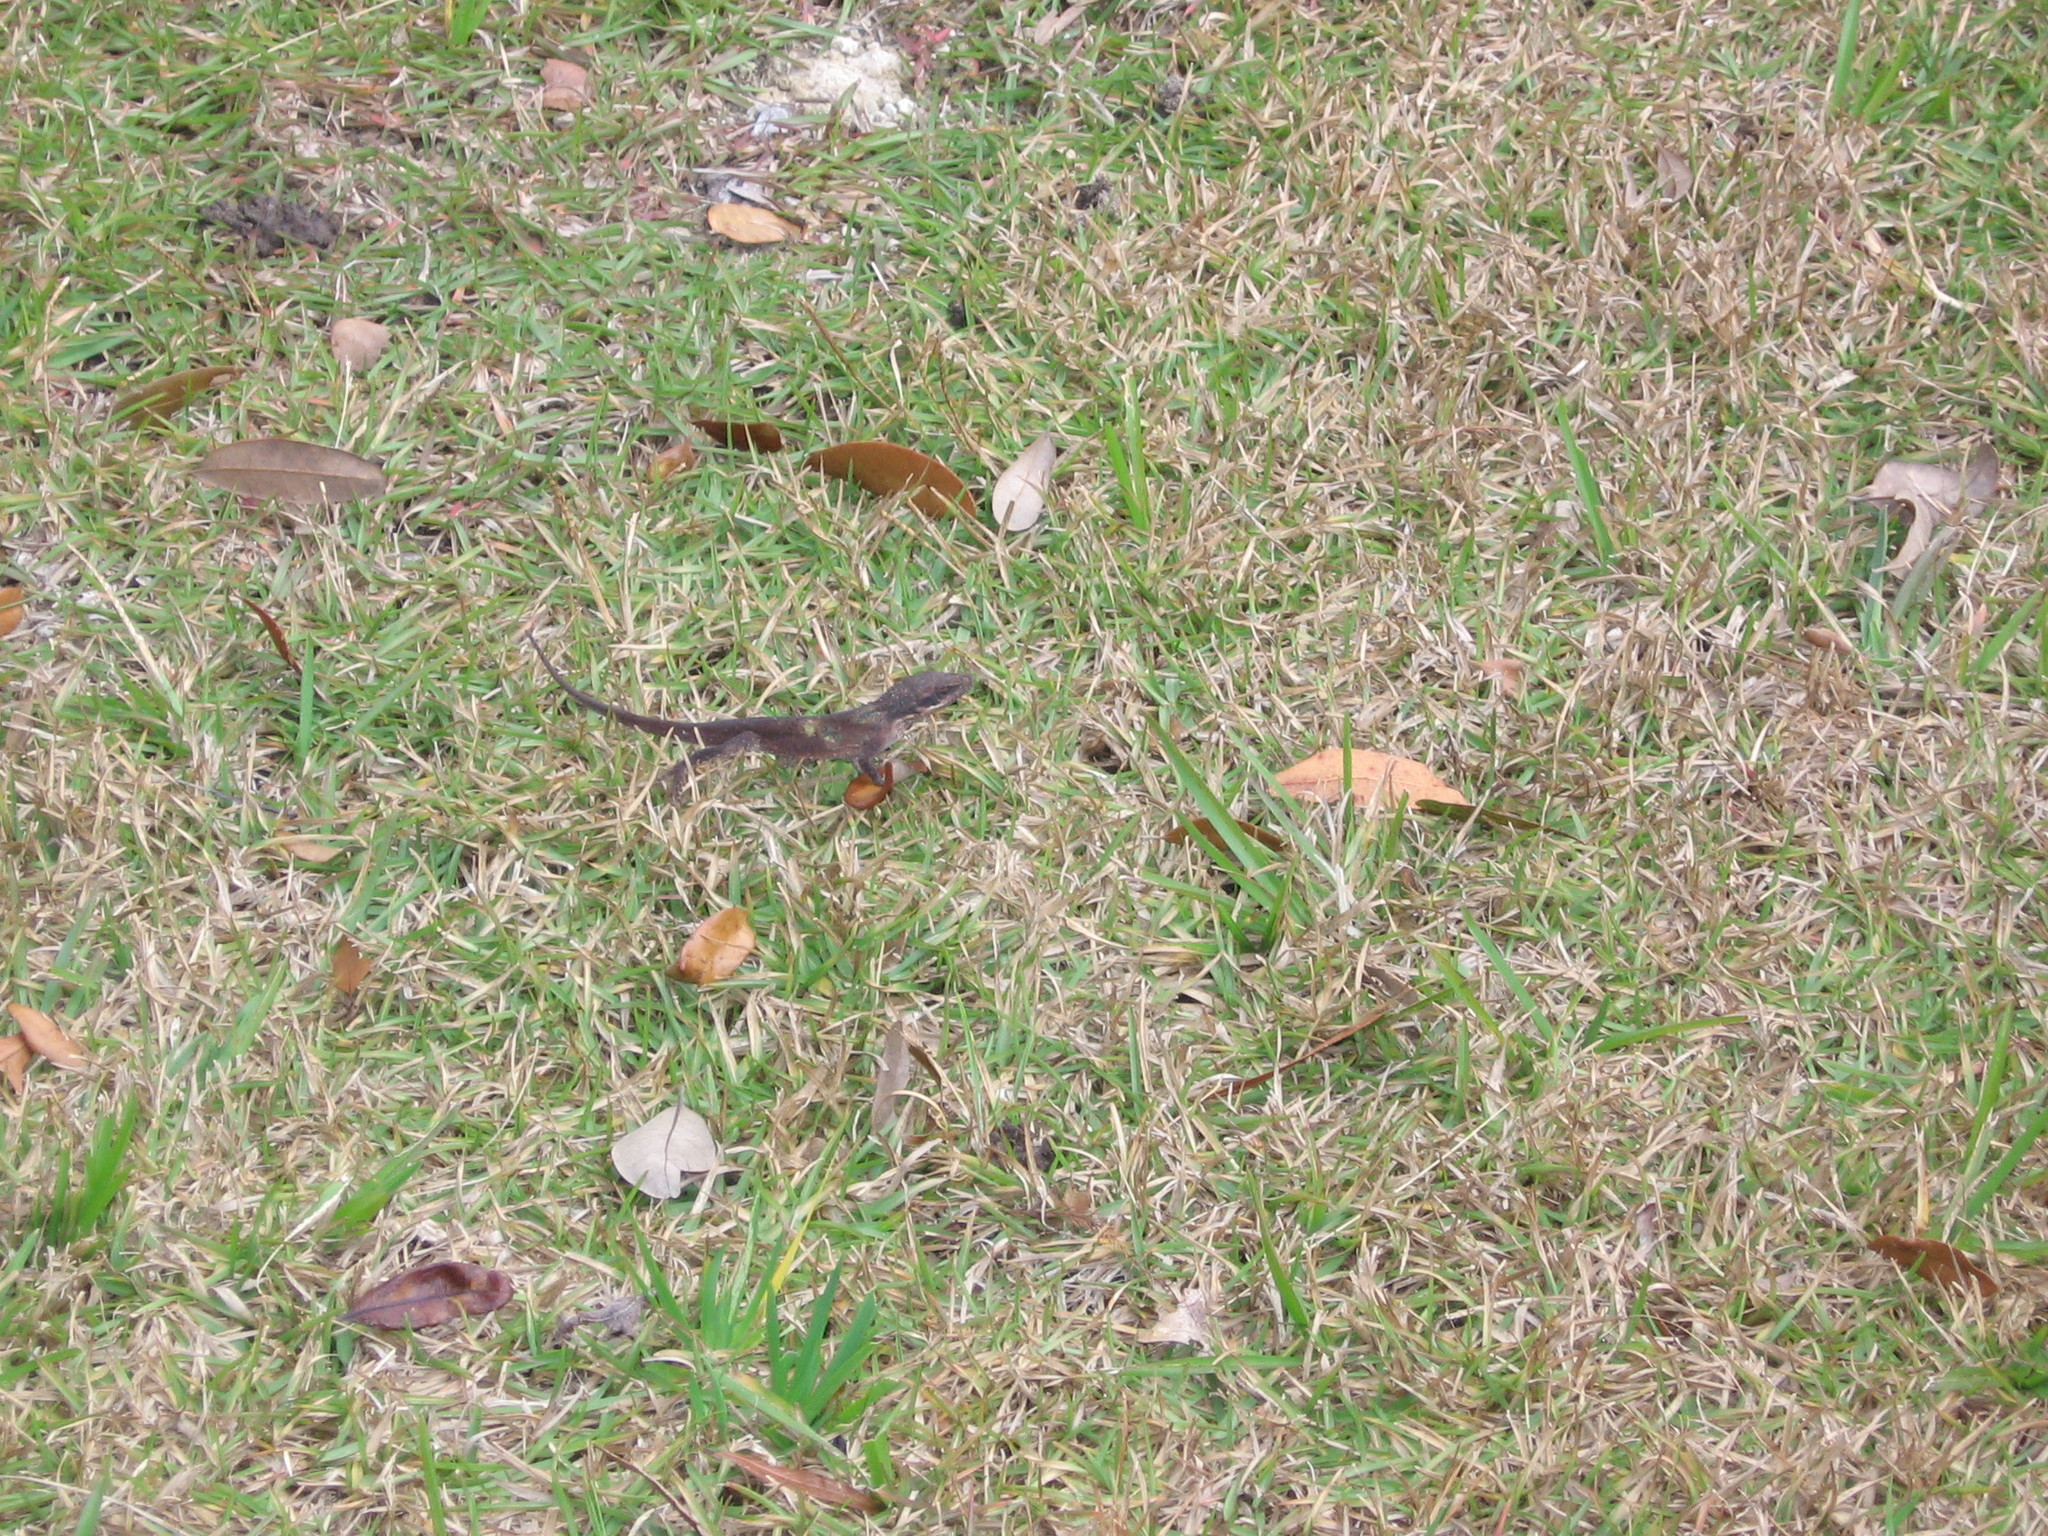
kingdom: Animalia
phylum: Chordata
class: Squamata
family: Dactyloidae
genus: Anolis
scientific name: Anolis carolinensis
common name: Green anole
